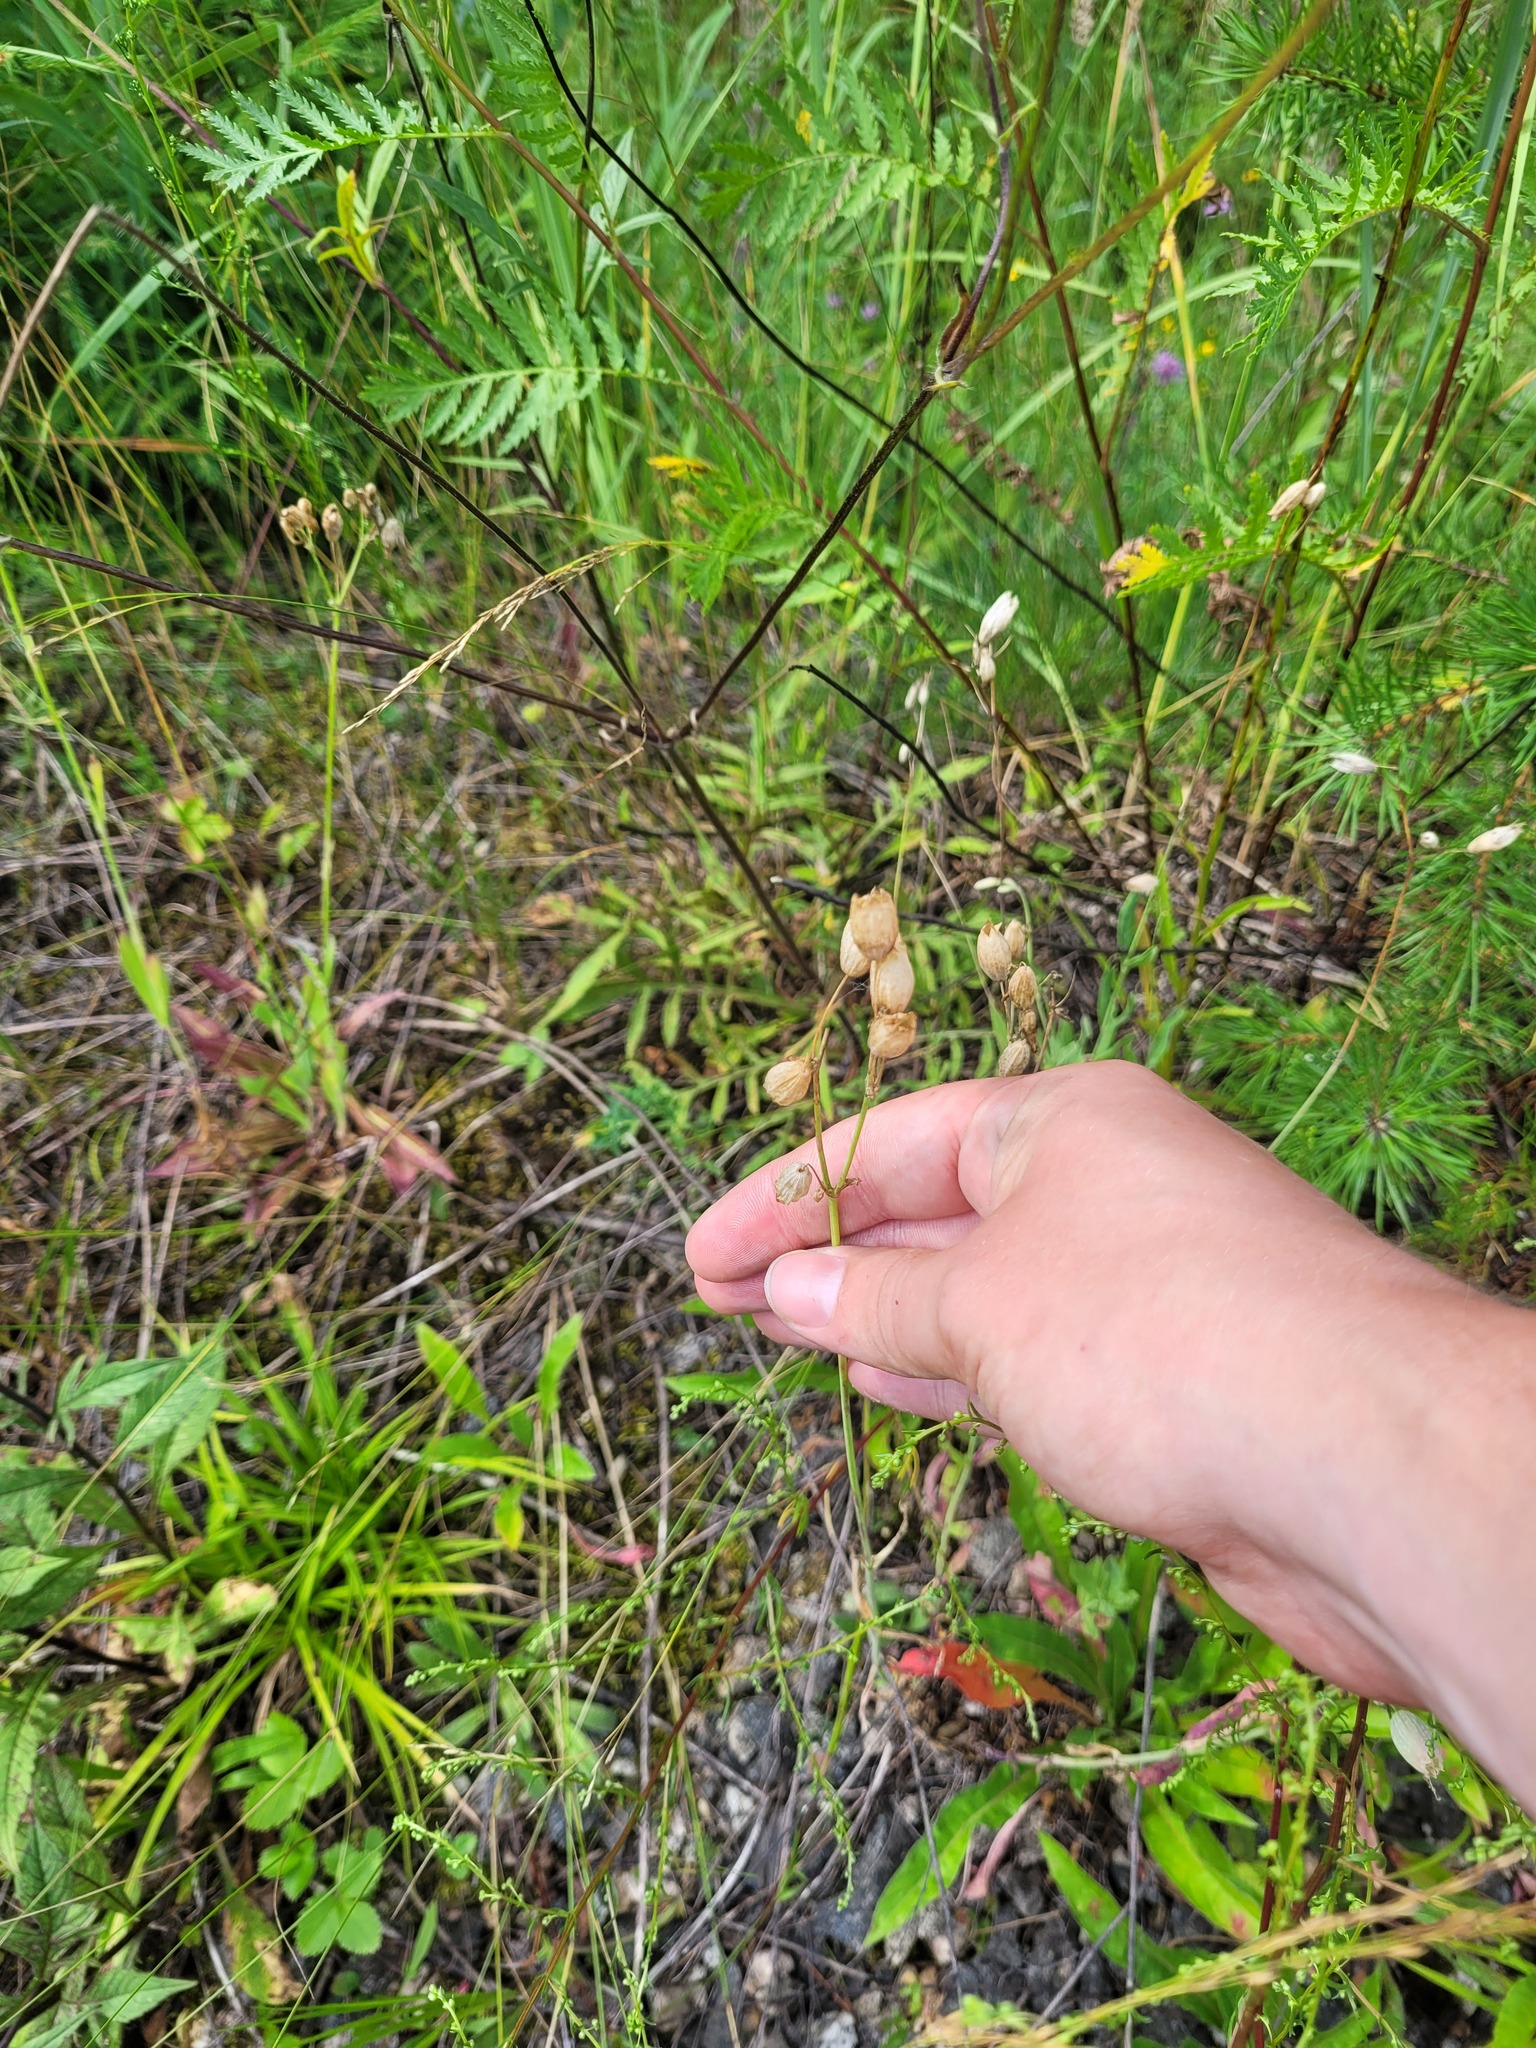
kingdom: Plantae
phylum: Tracheophyta
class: Magnoliopsida
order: Caryophyllales
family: Caryophyllaceae
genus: Silene
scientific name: Silene vulgaris
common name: Bladder campion
